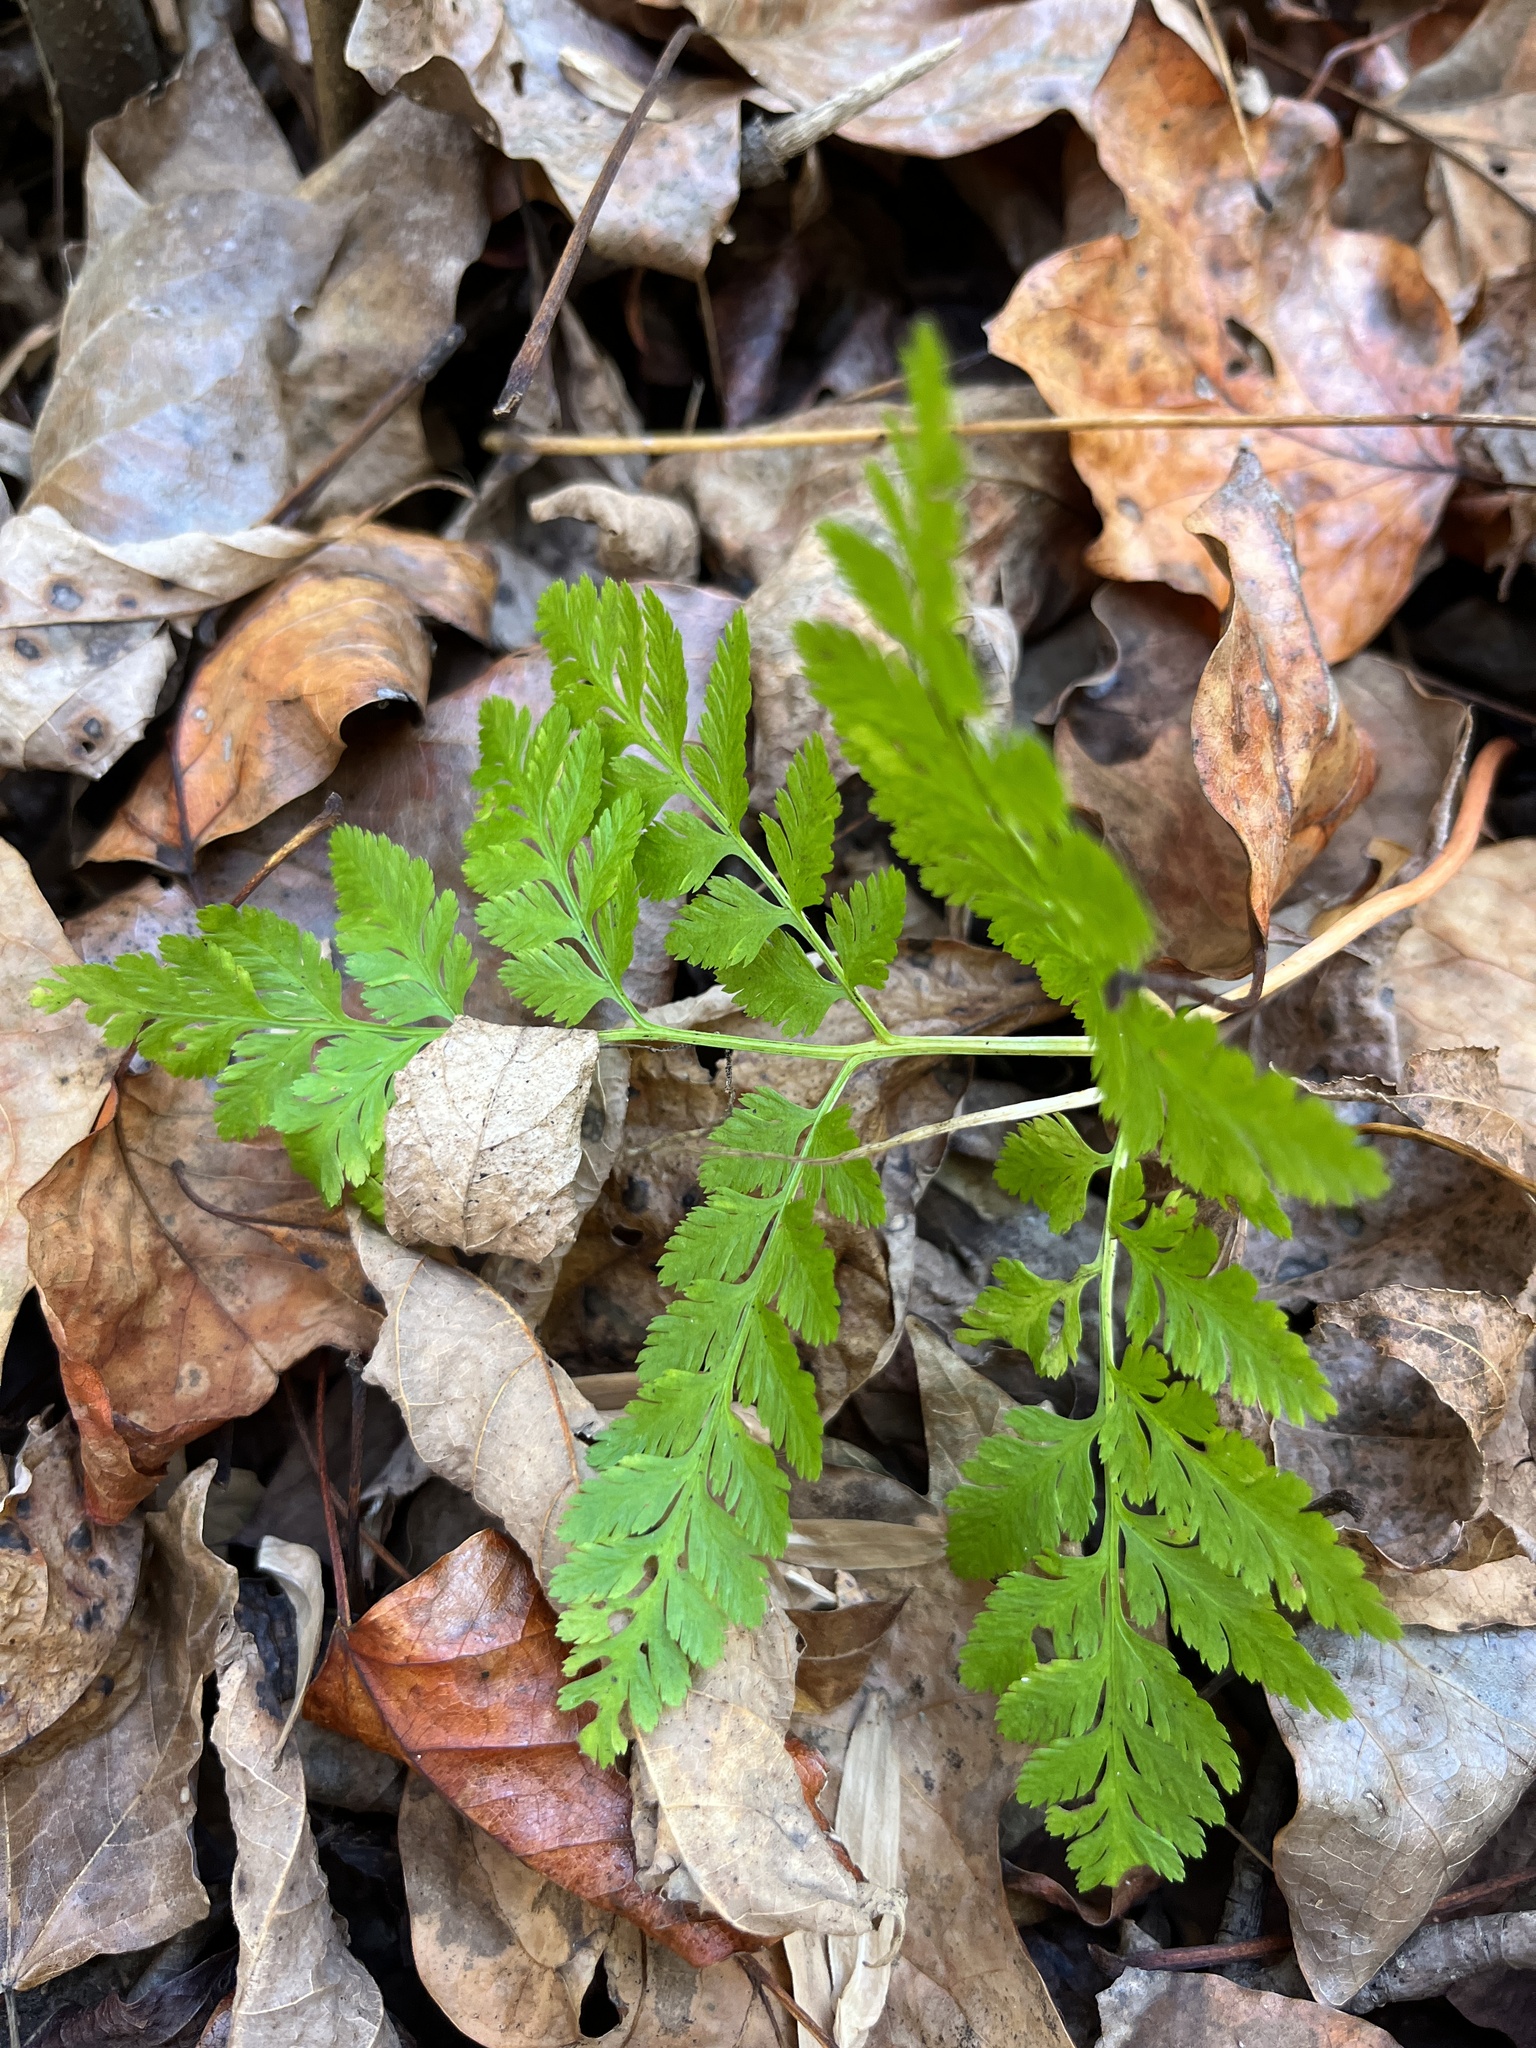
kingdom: Plantae
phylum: Tracheophyta
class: Polypodiopsida
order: Ophioglossales
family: Ophioglossaceae
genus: Botrypus
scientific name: Botrypus virginianus
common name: Common grapefern
